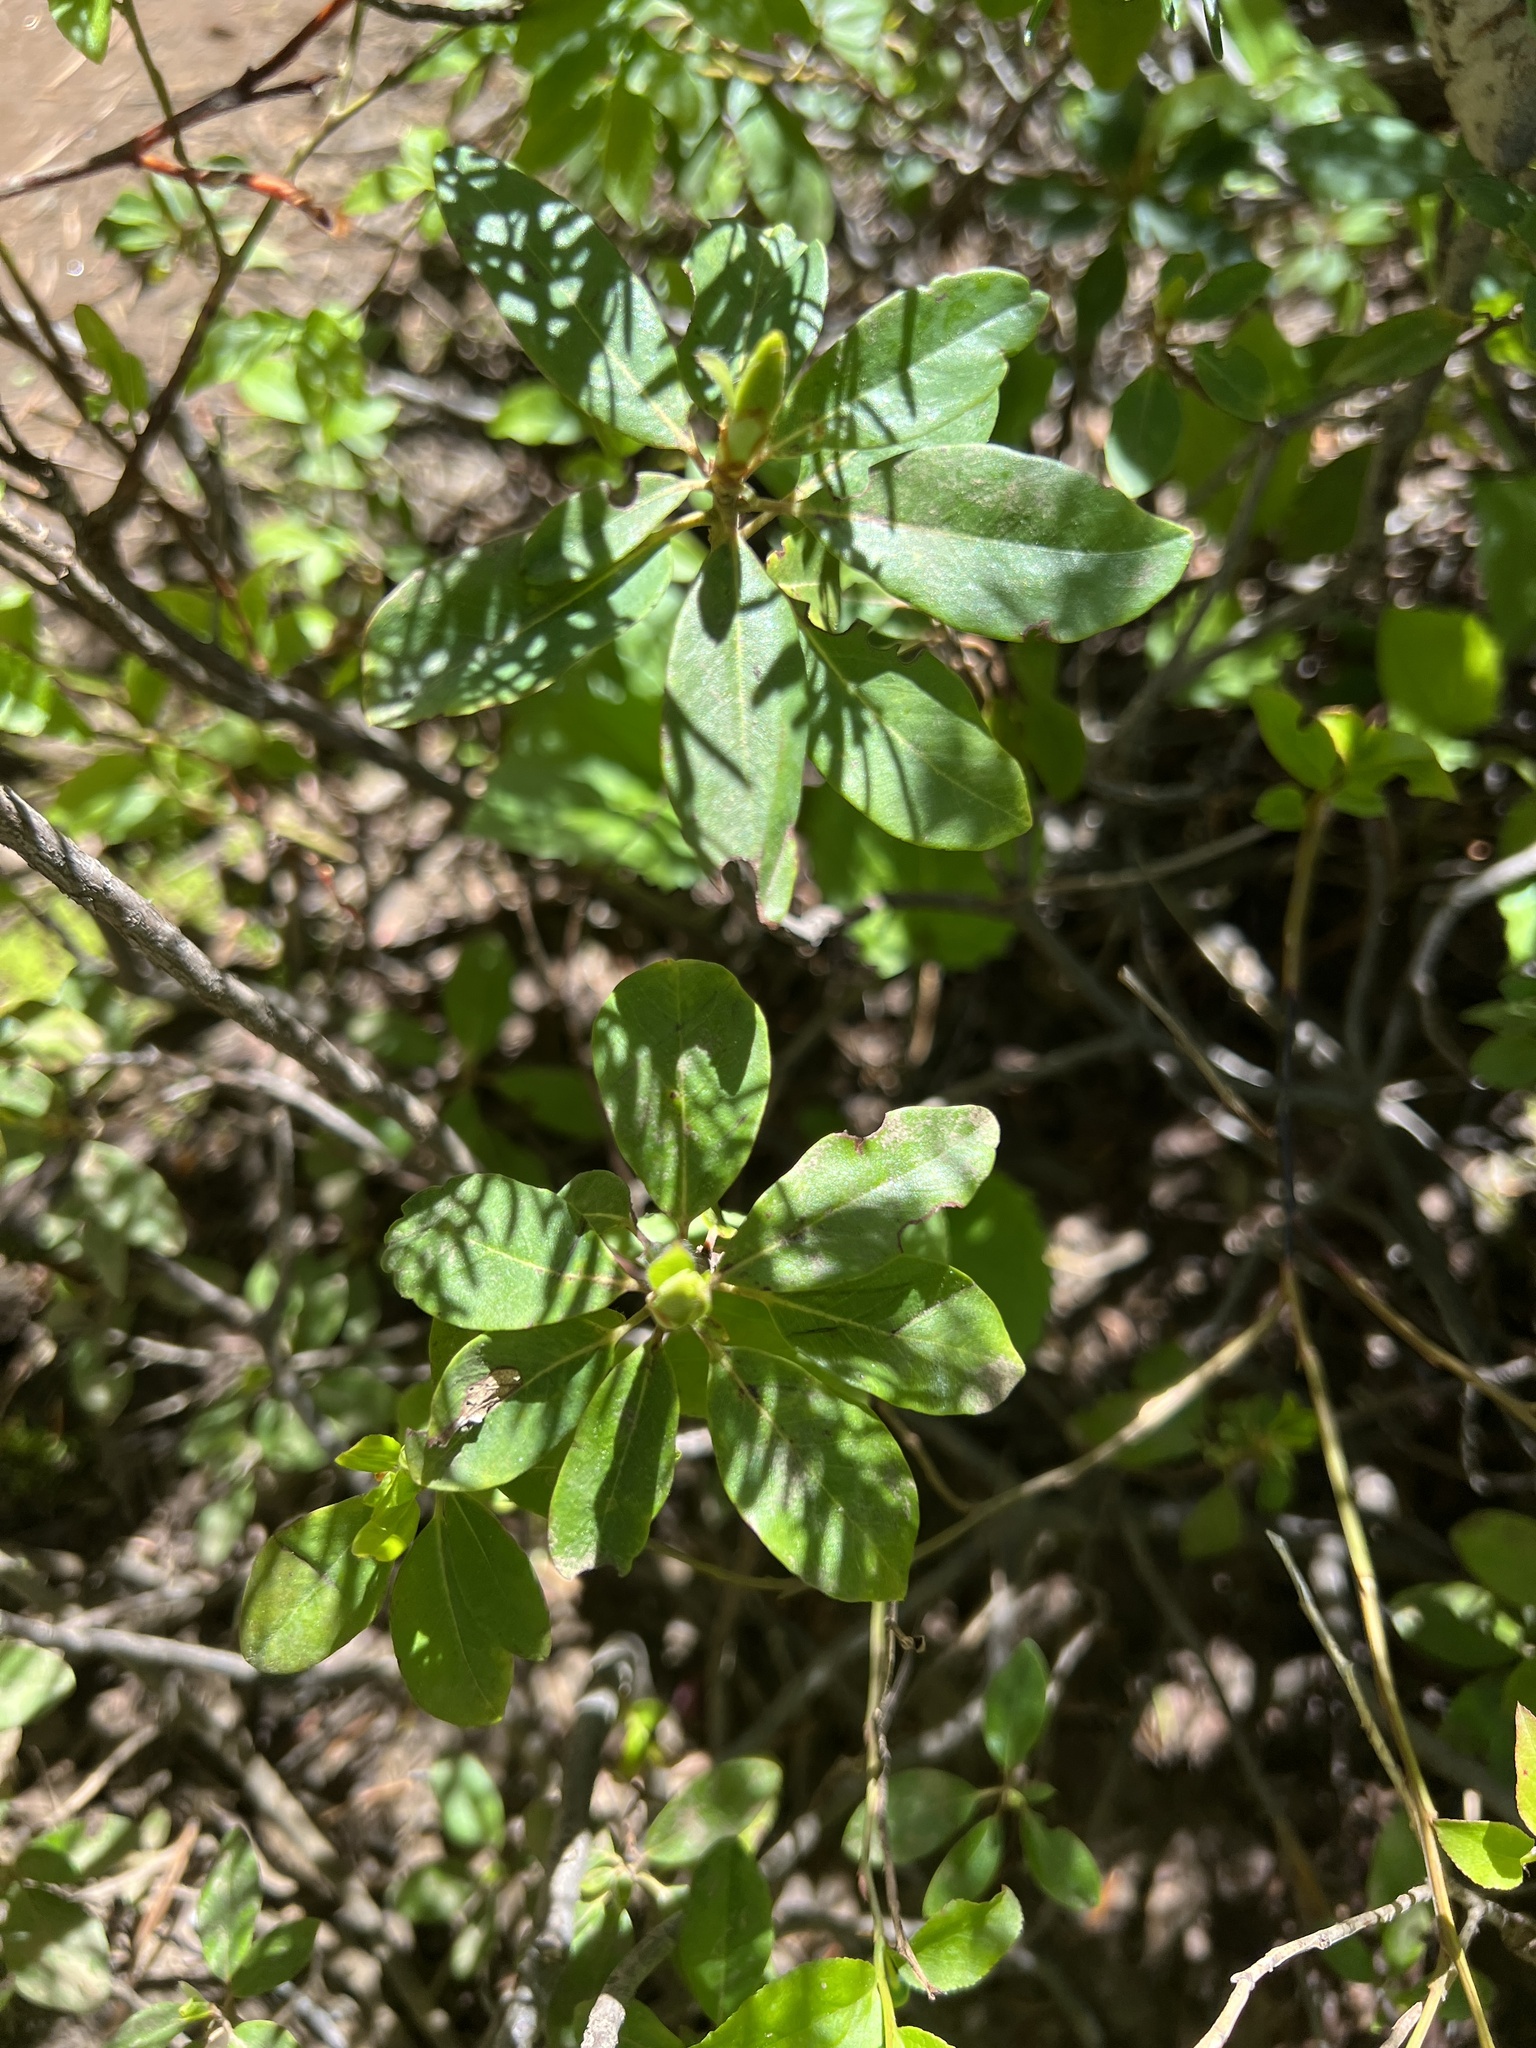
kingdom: Plantae
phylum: Tracheophyta
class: Magnoliopsida
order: Ericales
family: Ericaceae
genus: Rhododendron
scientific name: Rhododendron columbianum
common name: Western labrador tea
